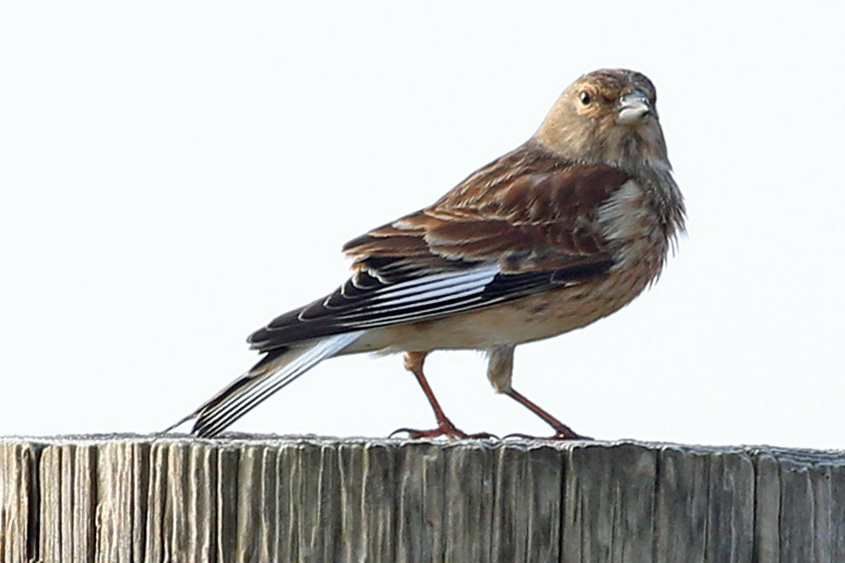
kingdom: Animalia
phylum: Chordata
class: Aves
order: Passeriformes
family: Fringillidae
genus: Linaria
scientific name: Linaria cannabina
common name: Common linnet
